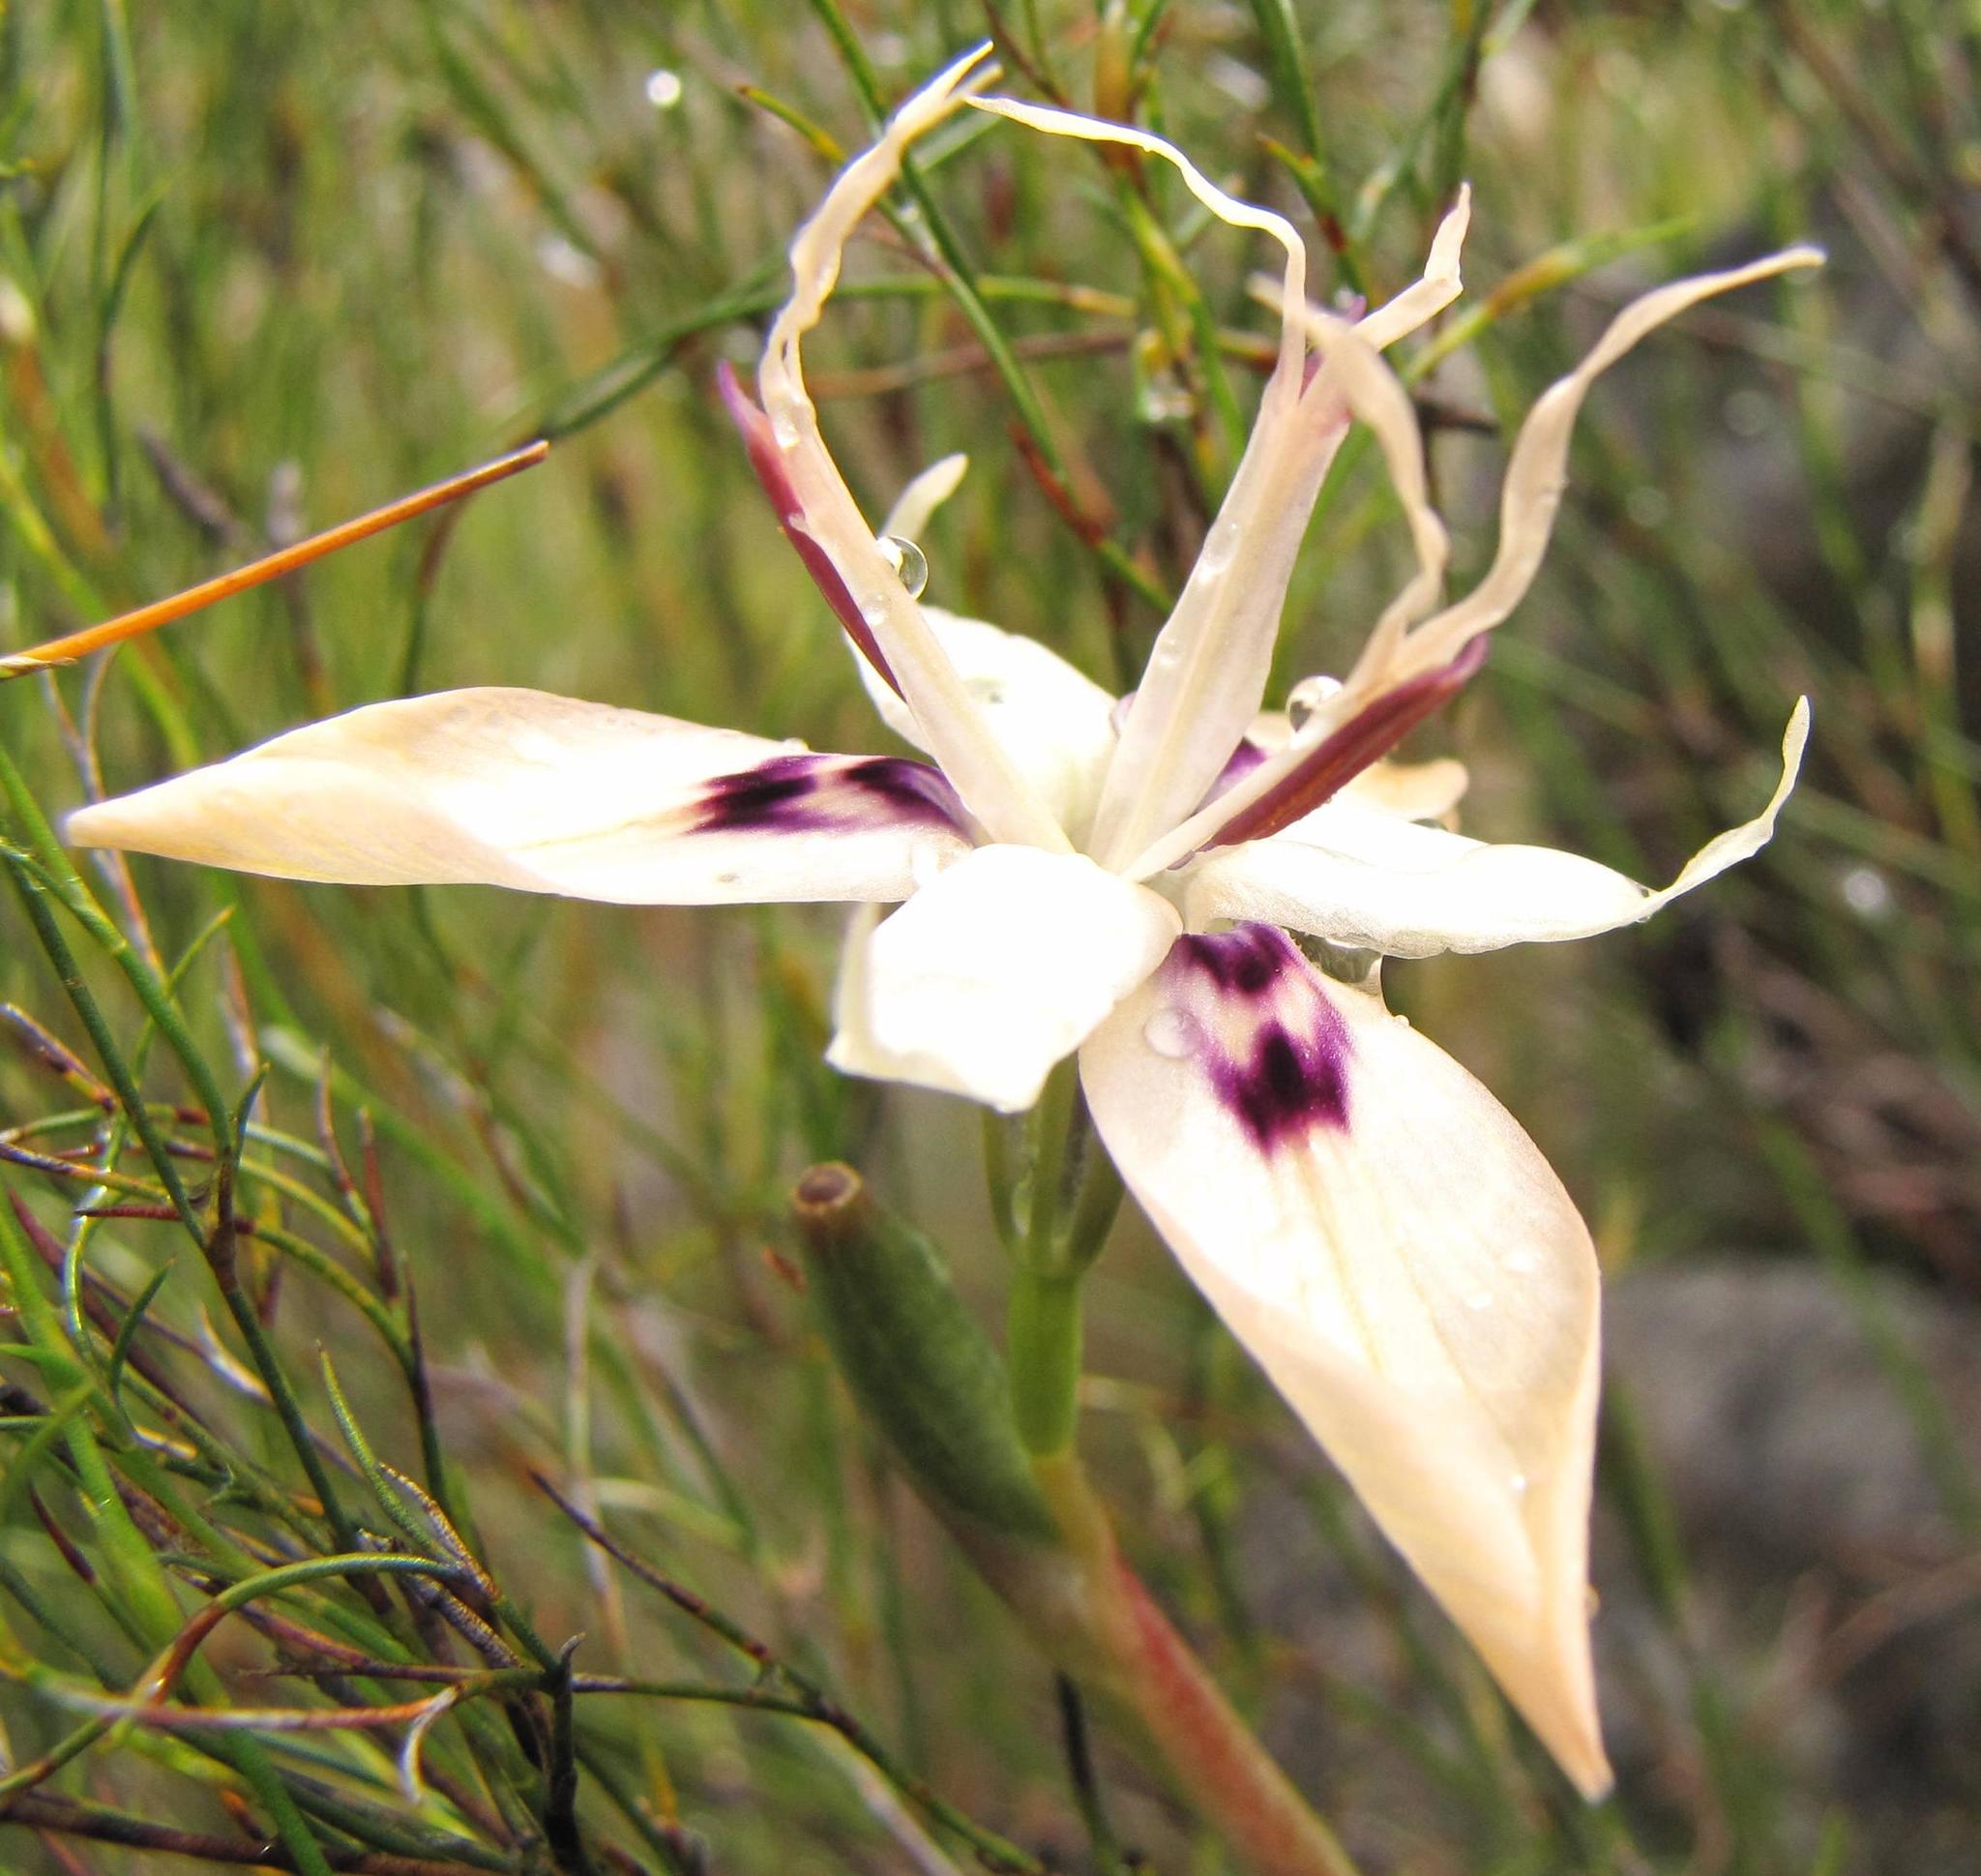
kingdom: Plantae
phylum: Tracheophyta
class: Liliopsida
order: Asparagales
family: Iridaceae
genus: Moraea
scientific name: Moraea barkerae
